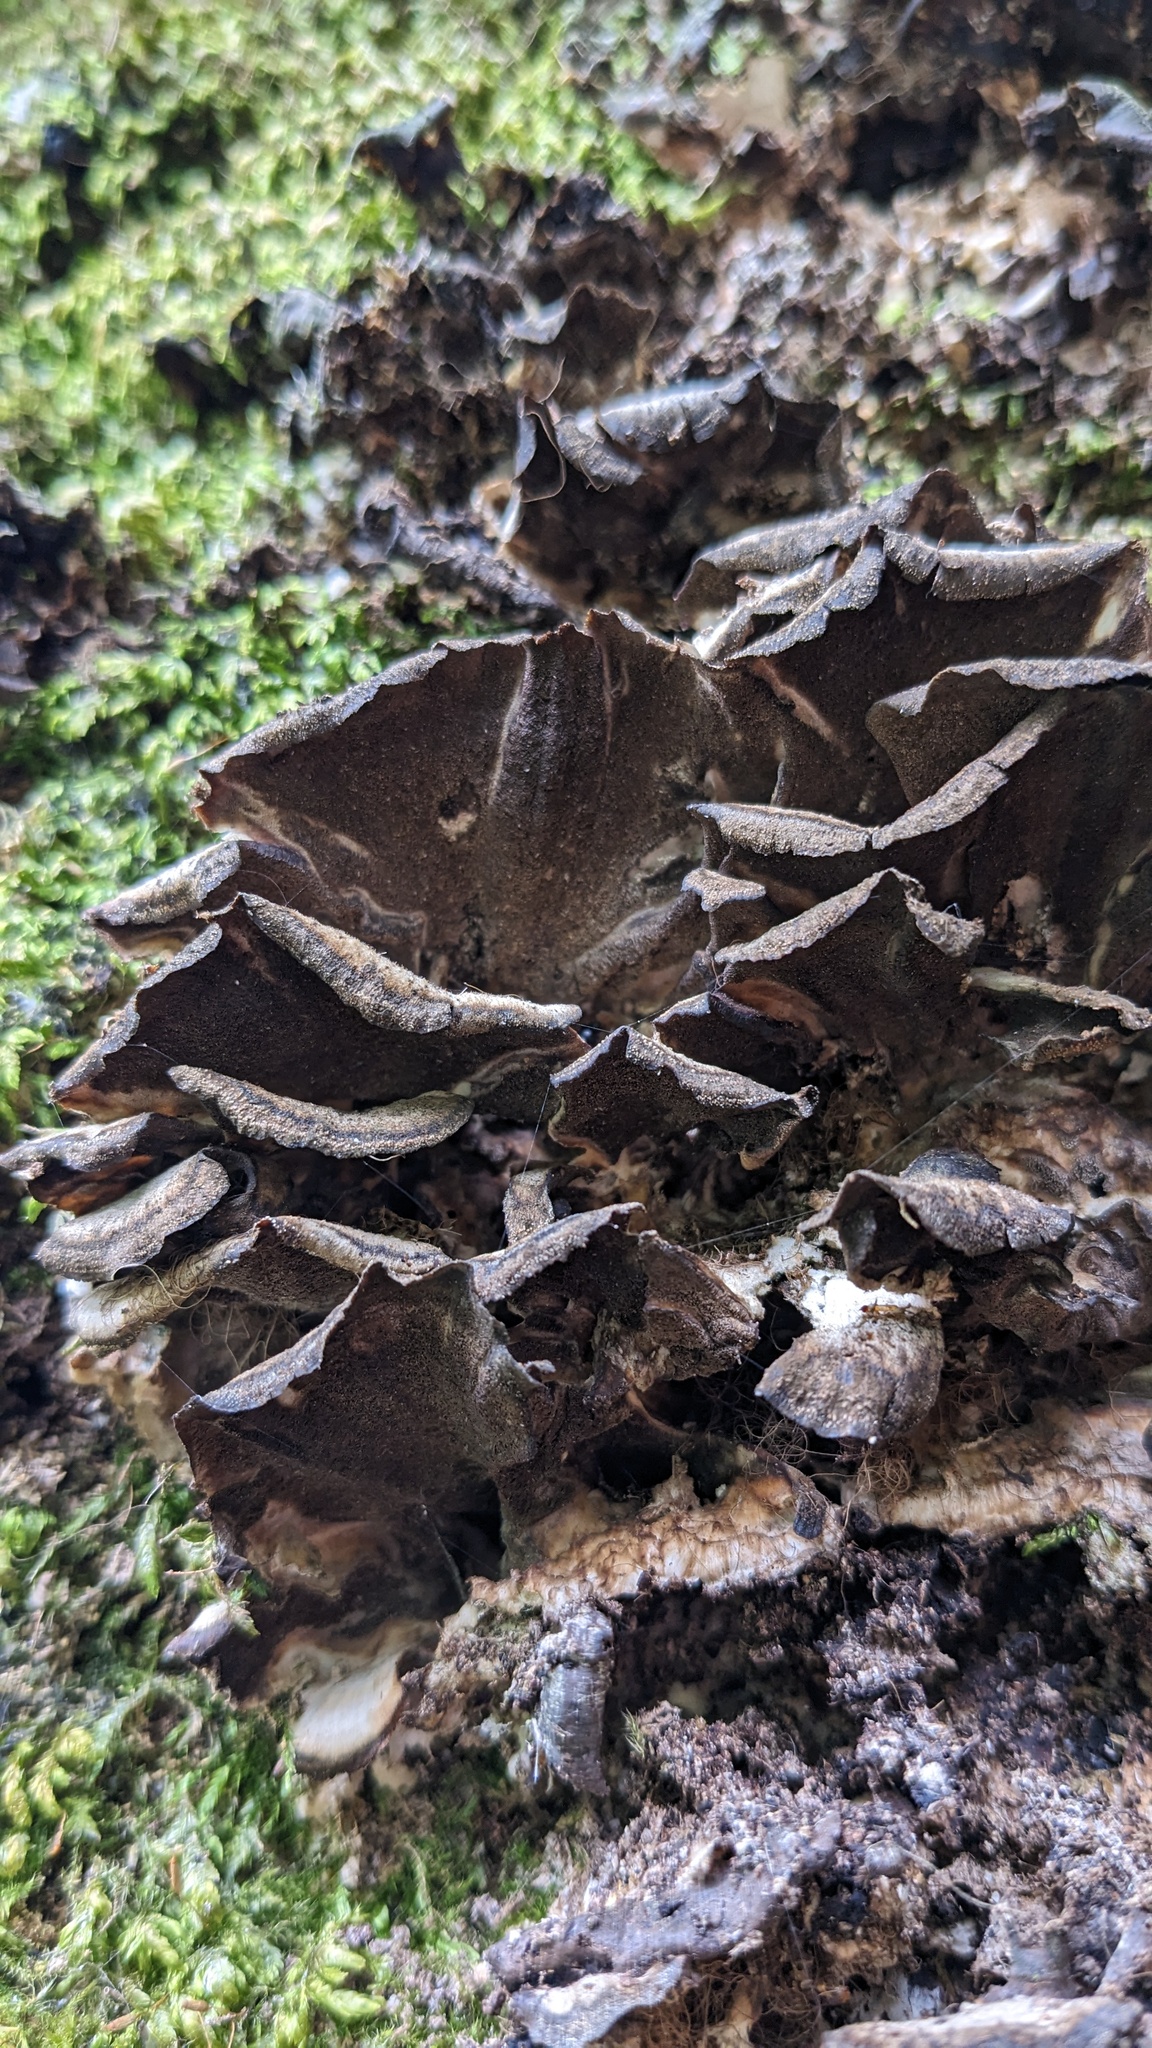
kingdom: Fungi
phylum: Basidiomycota
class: Agaricomycetes
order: Polyporales
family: Phanerochaetaceae
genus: Bjerkandera
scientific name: Bjerkandera adusta
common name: Smoky bracket
